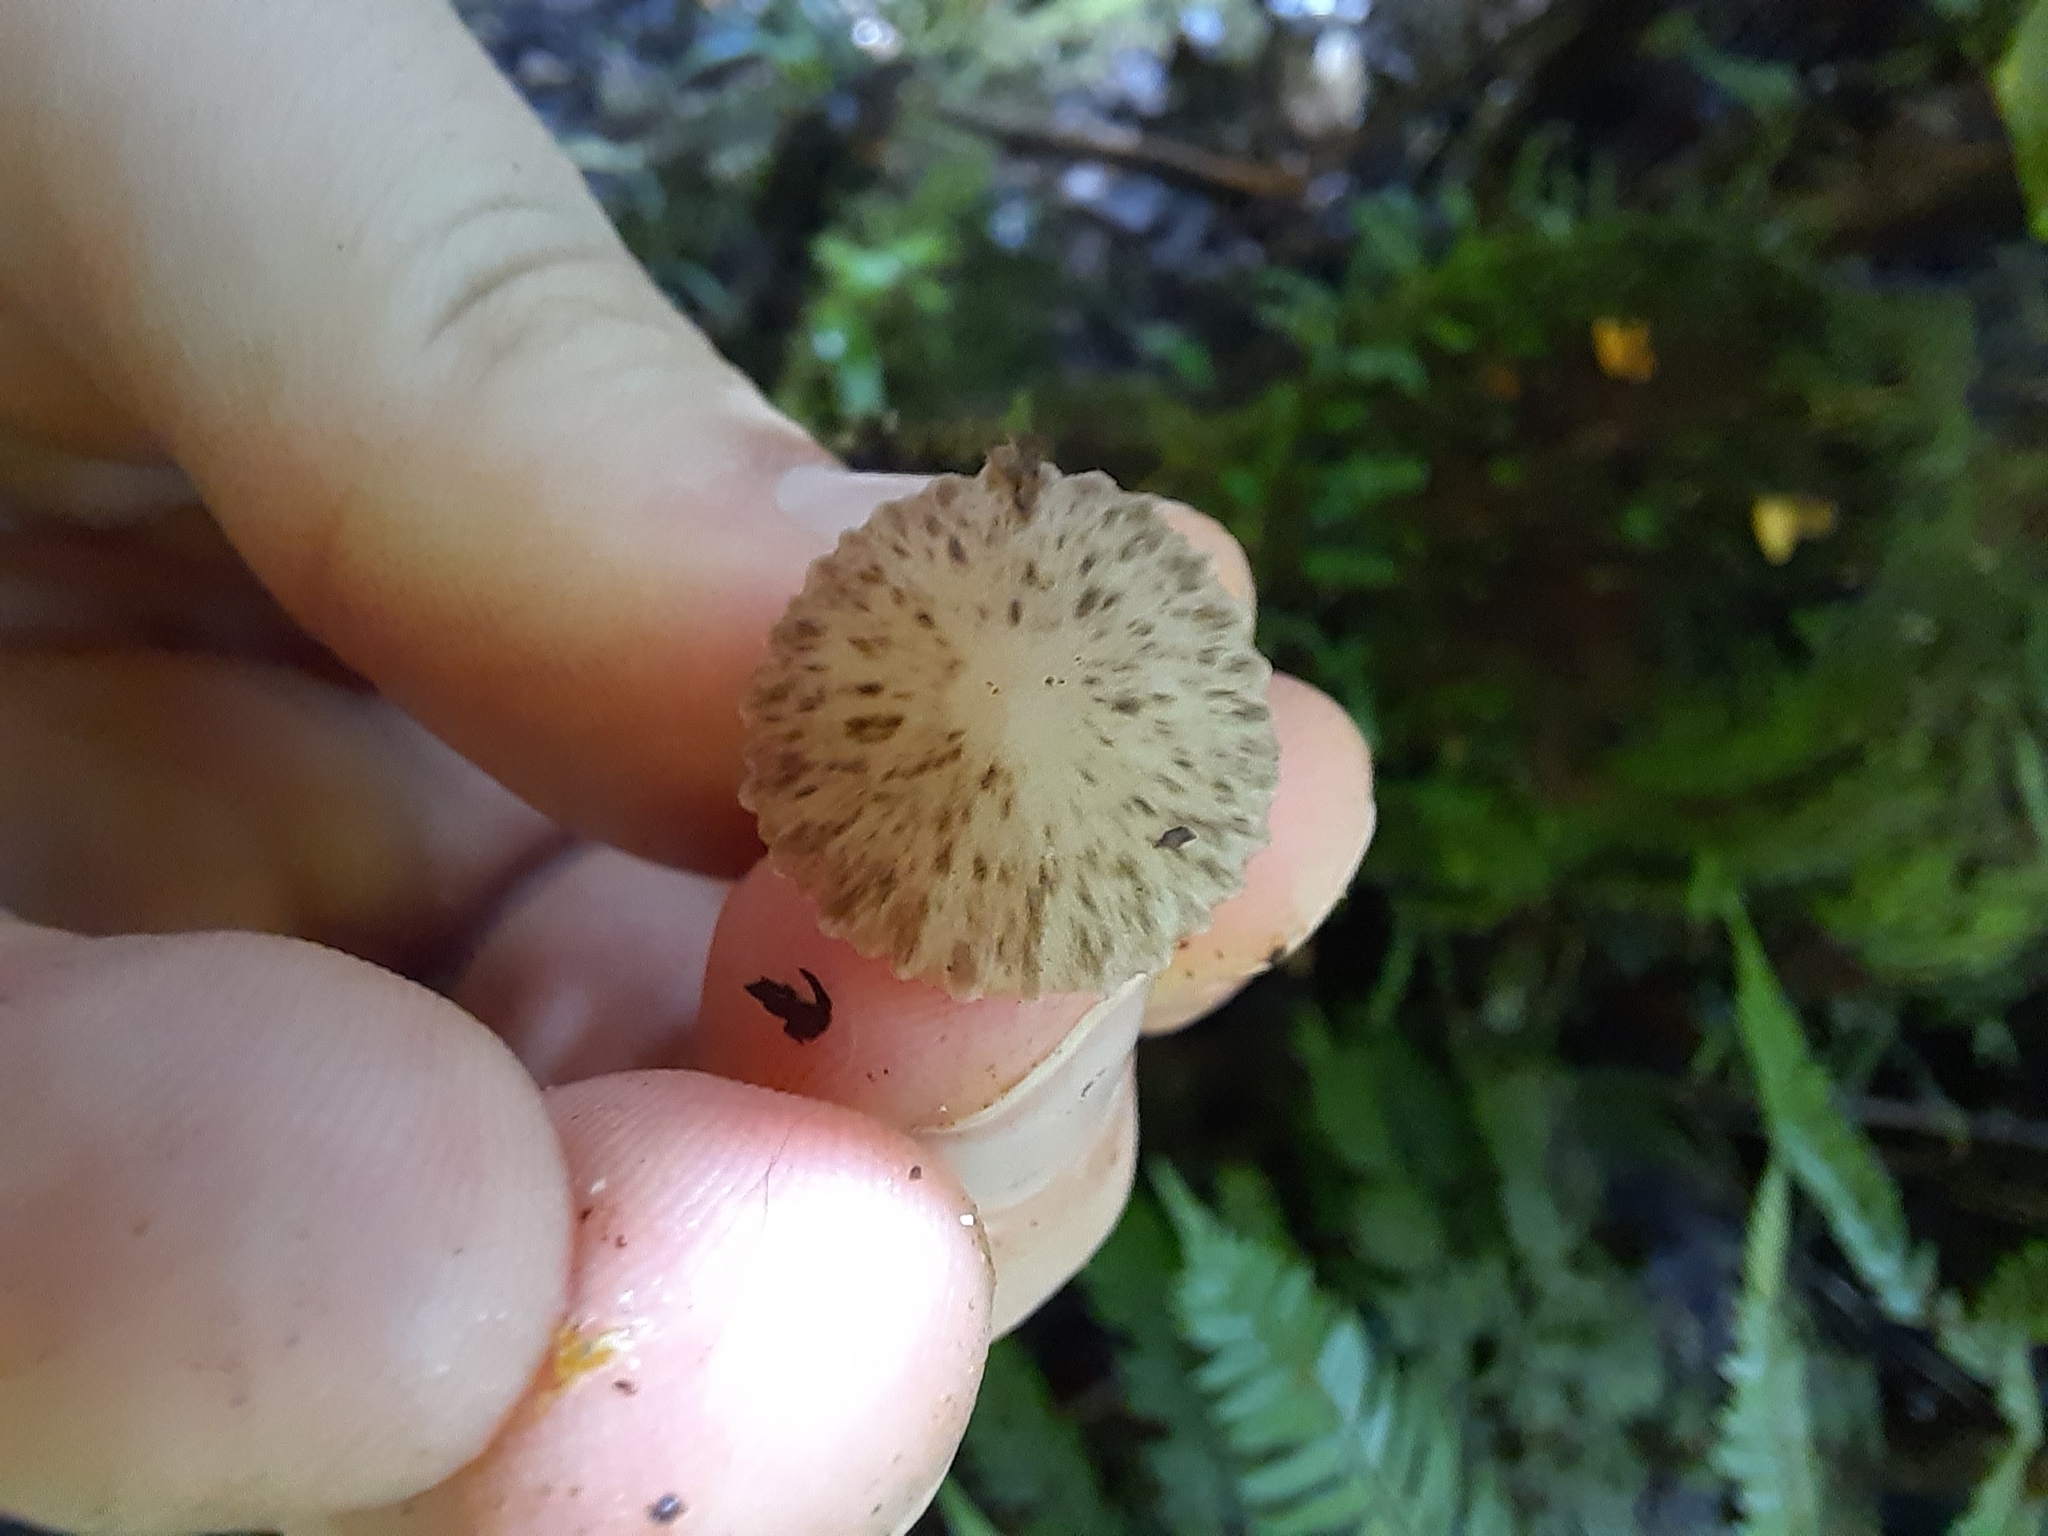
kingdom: Fungi
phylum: Basidiomycota
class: Agaricomycetes
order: Agaricales
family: Porotheleaceae
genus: Pseudohydropus
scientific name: Pseudohydropus parafunebris
